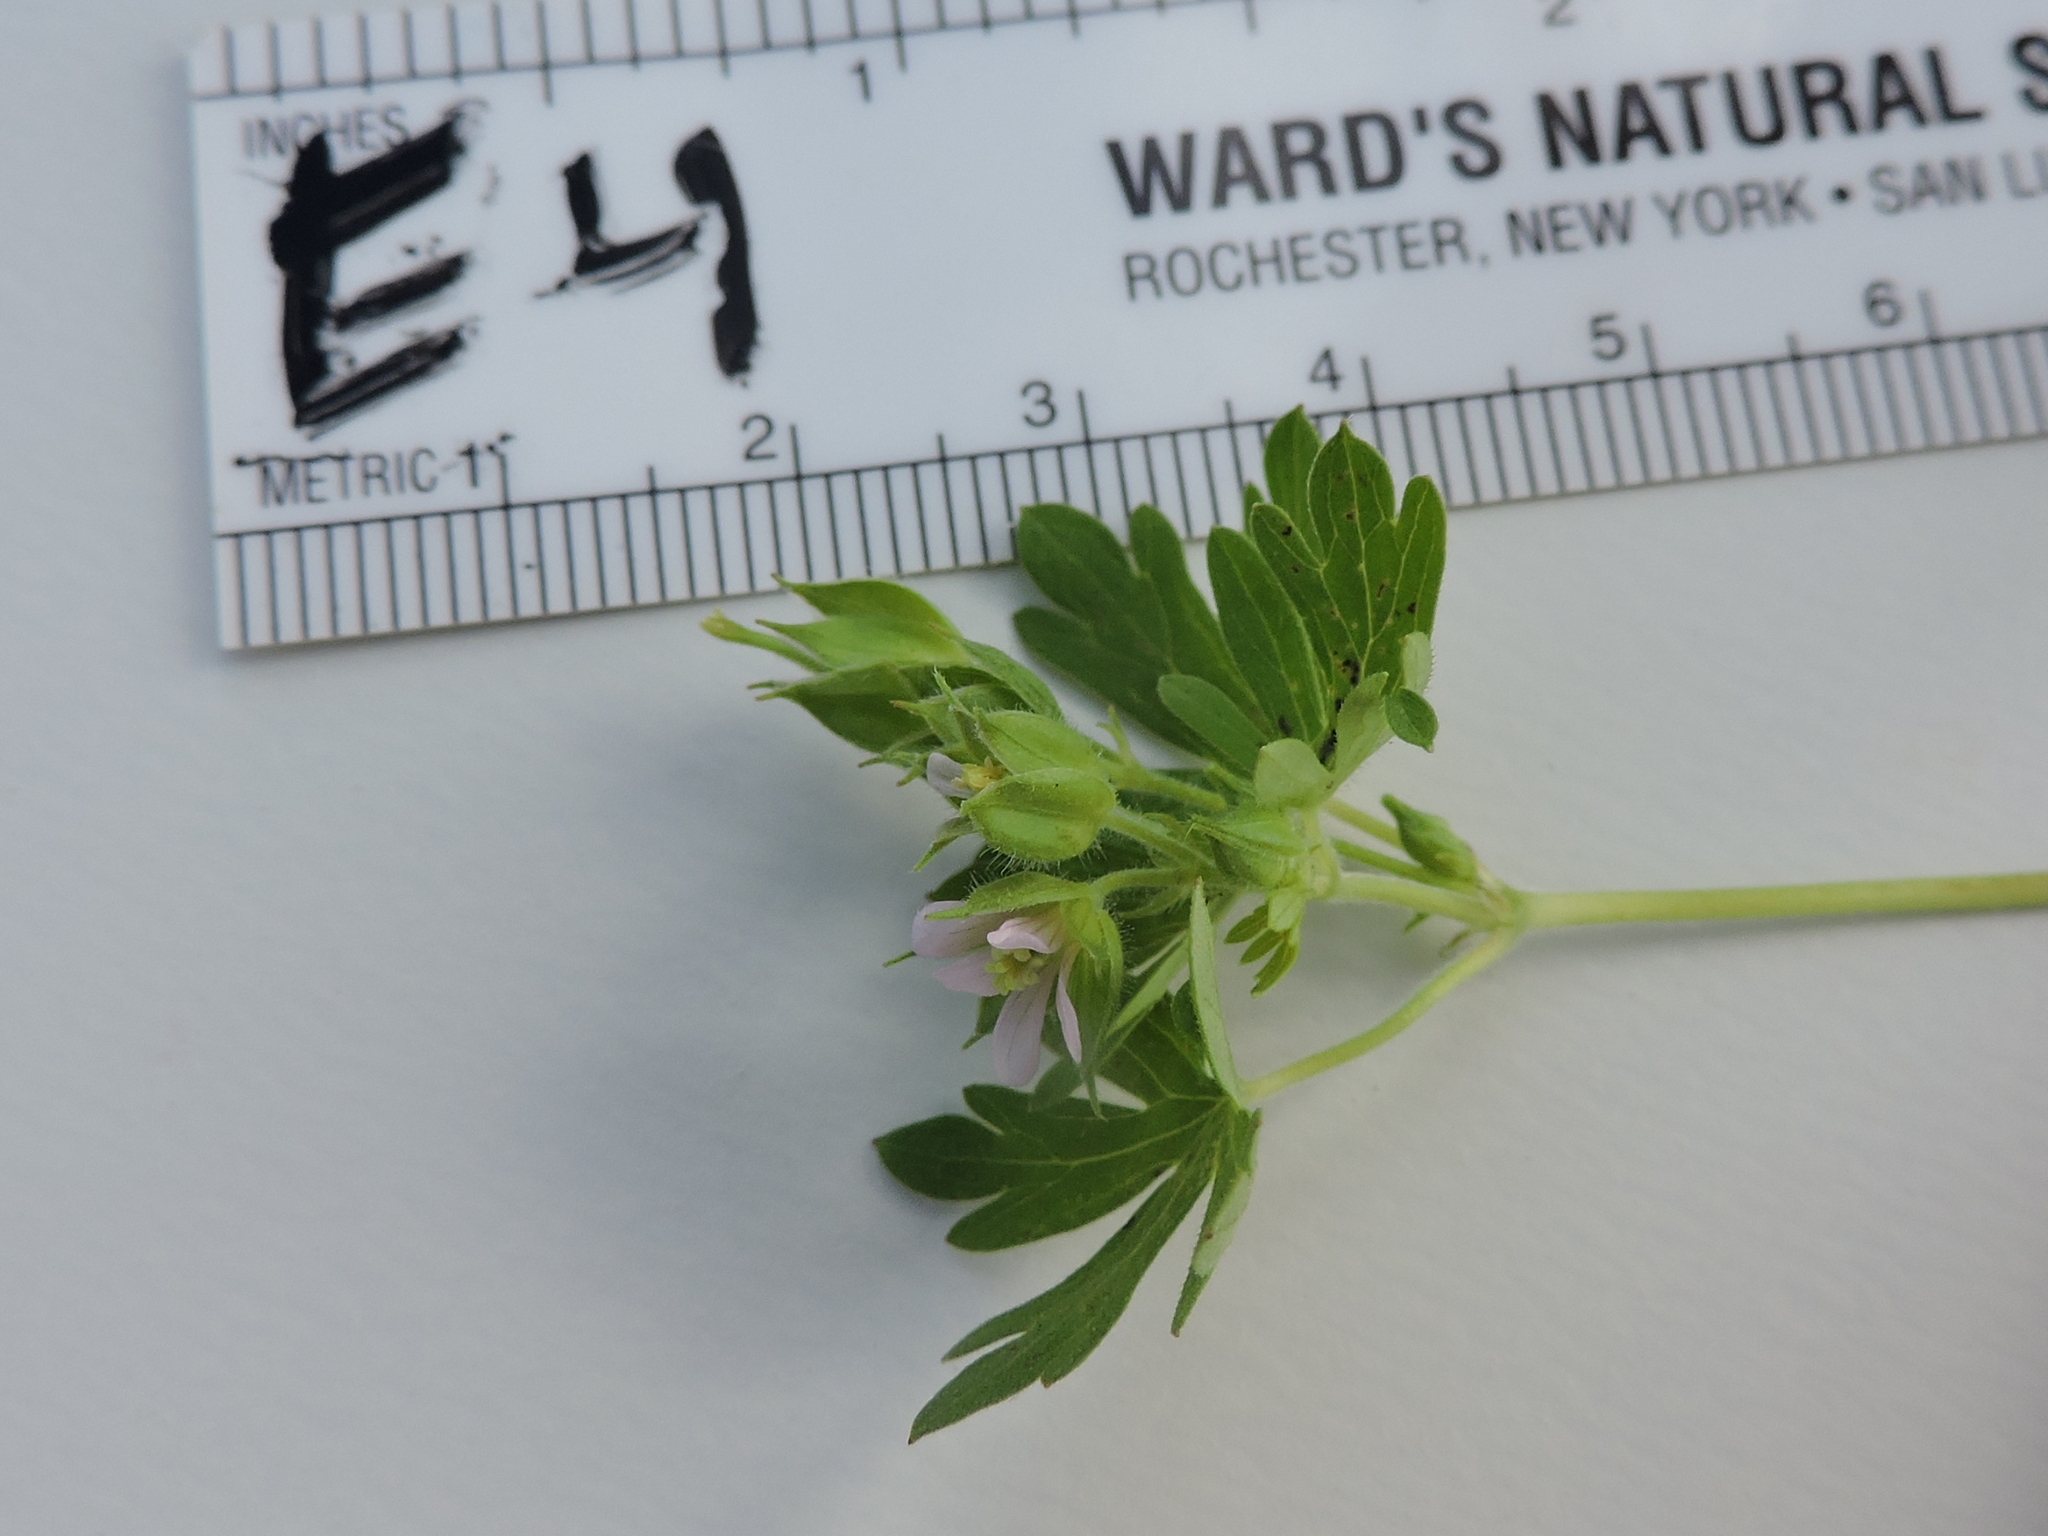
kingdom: Plantae
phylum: Tracheophyta
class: Magnoliopsida
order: Geraniales
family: Geraniaceae
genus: Geranium
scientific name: Geranium carolinianum
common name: Carolina crane's-bill
